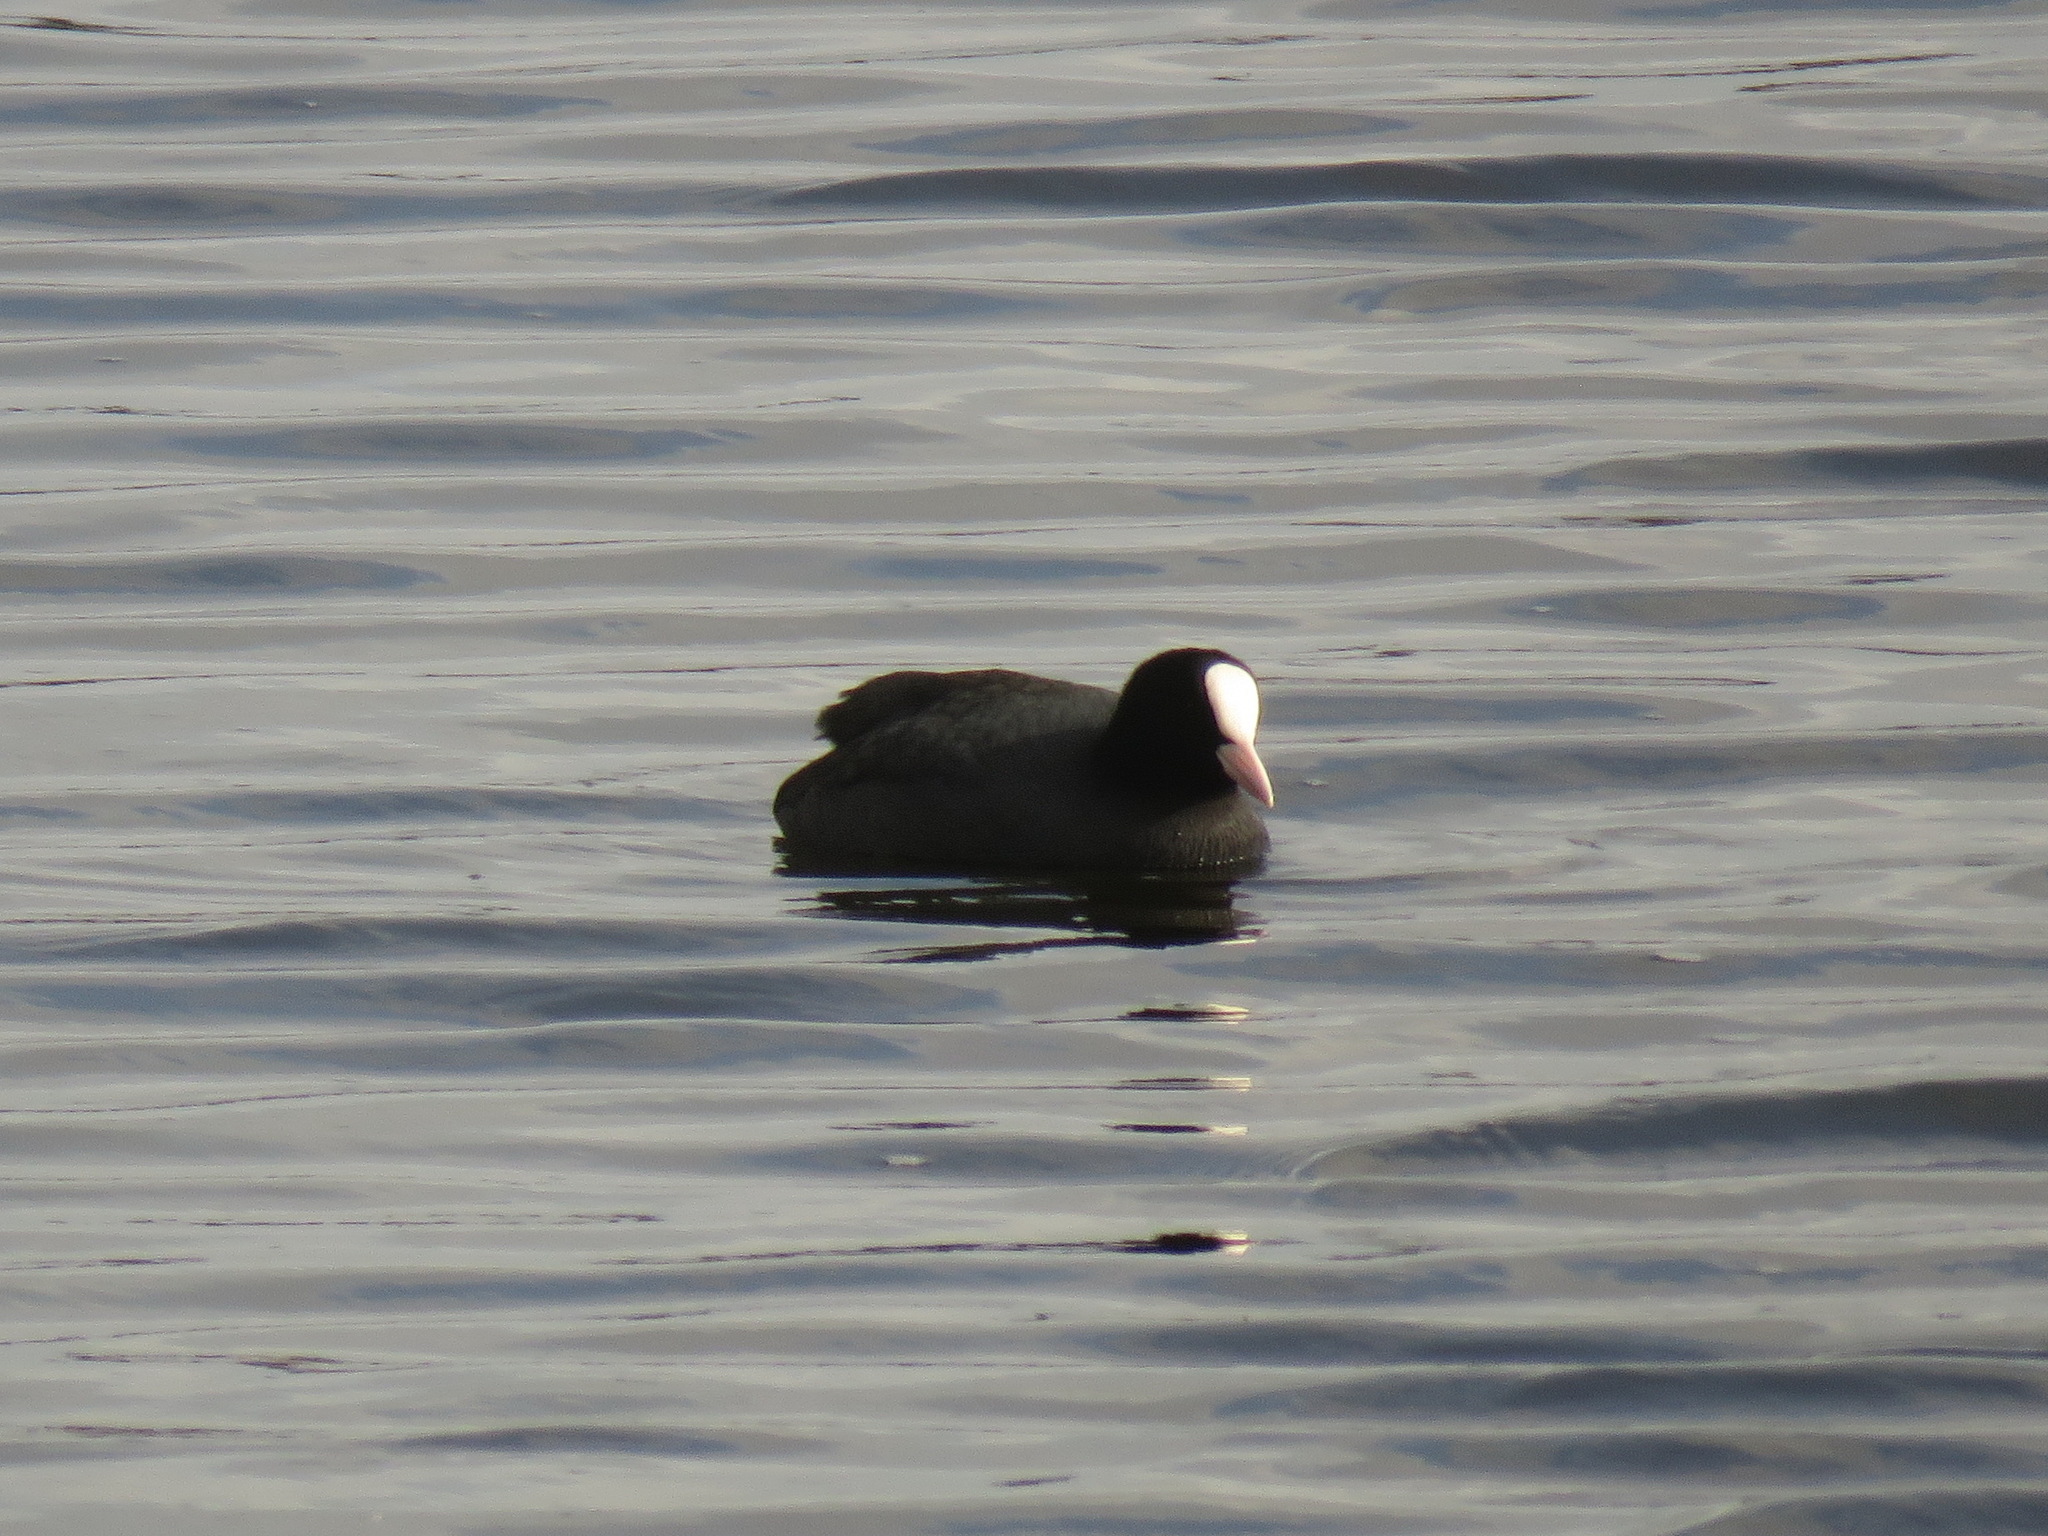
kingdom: Animalia
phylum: Chordata
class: Aves
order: Gruiformes
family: Rallidae
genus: Fulica
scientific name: Fulica atra
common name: Eurasian coot
